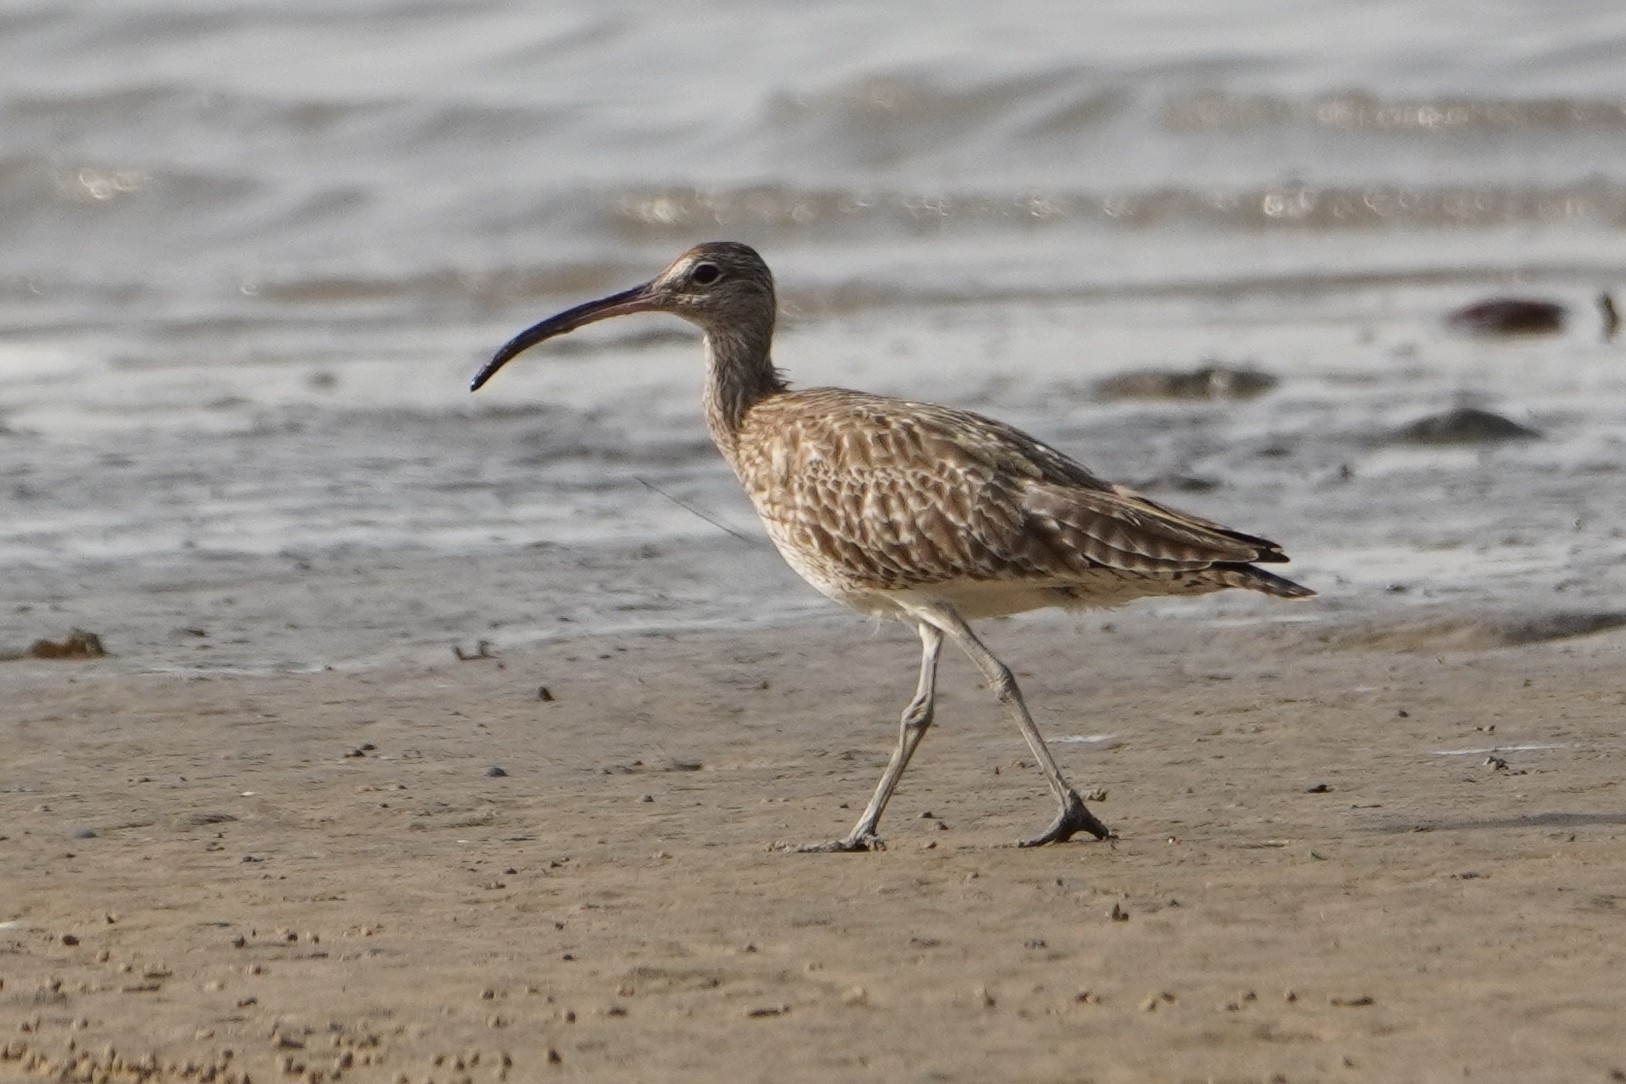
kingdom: Animalia
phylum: Chordata
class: Aves
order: Charadriiformes
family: Scolopacidae
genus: Numenius
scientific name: Numenius phaeopus
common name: Whimbrel
